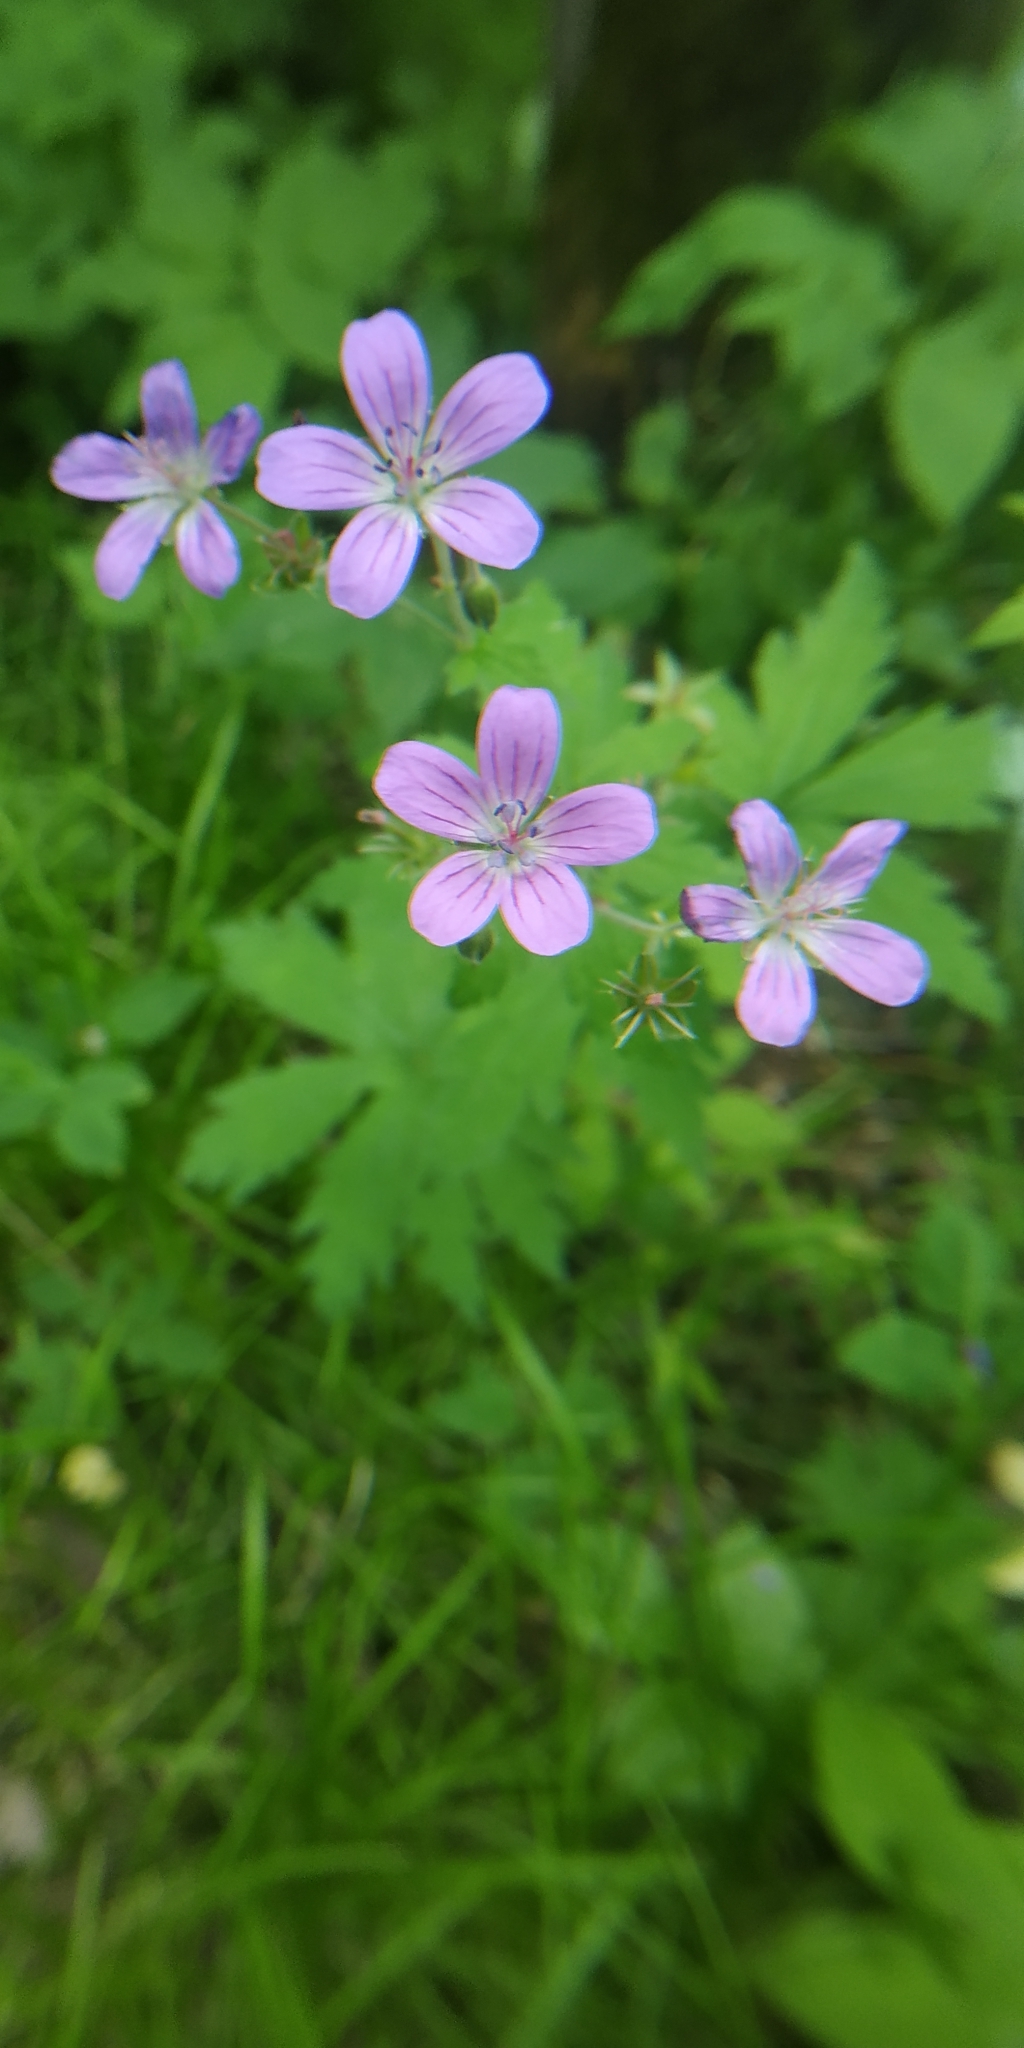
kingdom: Plantae
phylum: Tracheophyta
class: Magnoliopsida
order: Geraniales
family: Geraniaceae
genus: Geranium
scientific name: Geranium sylvaticum
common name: Wood crane's-bill
